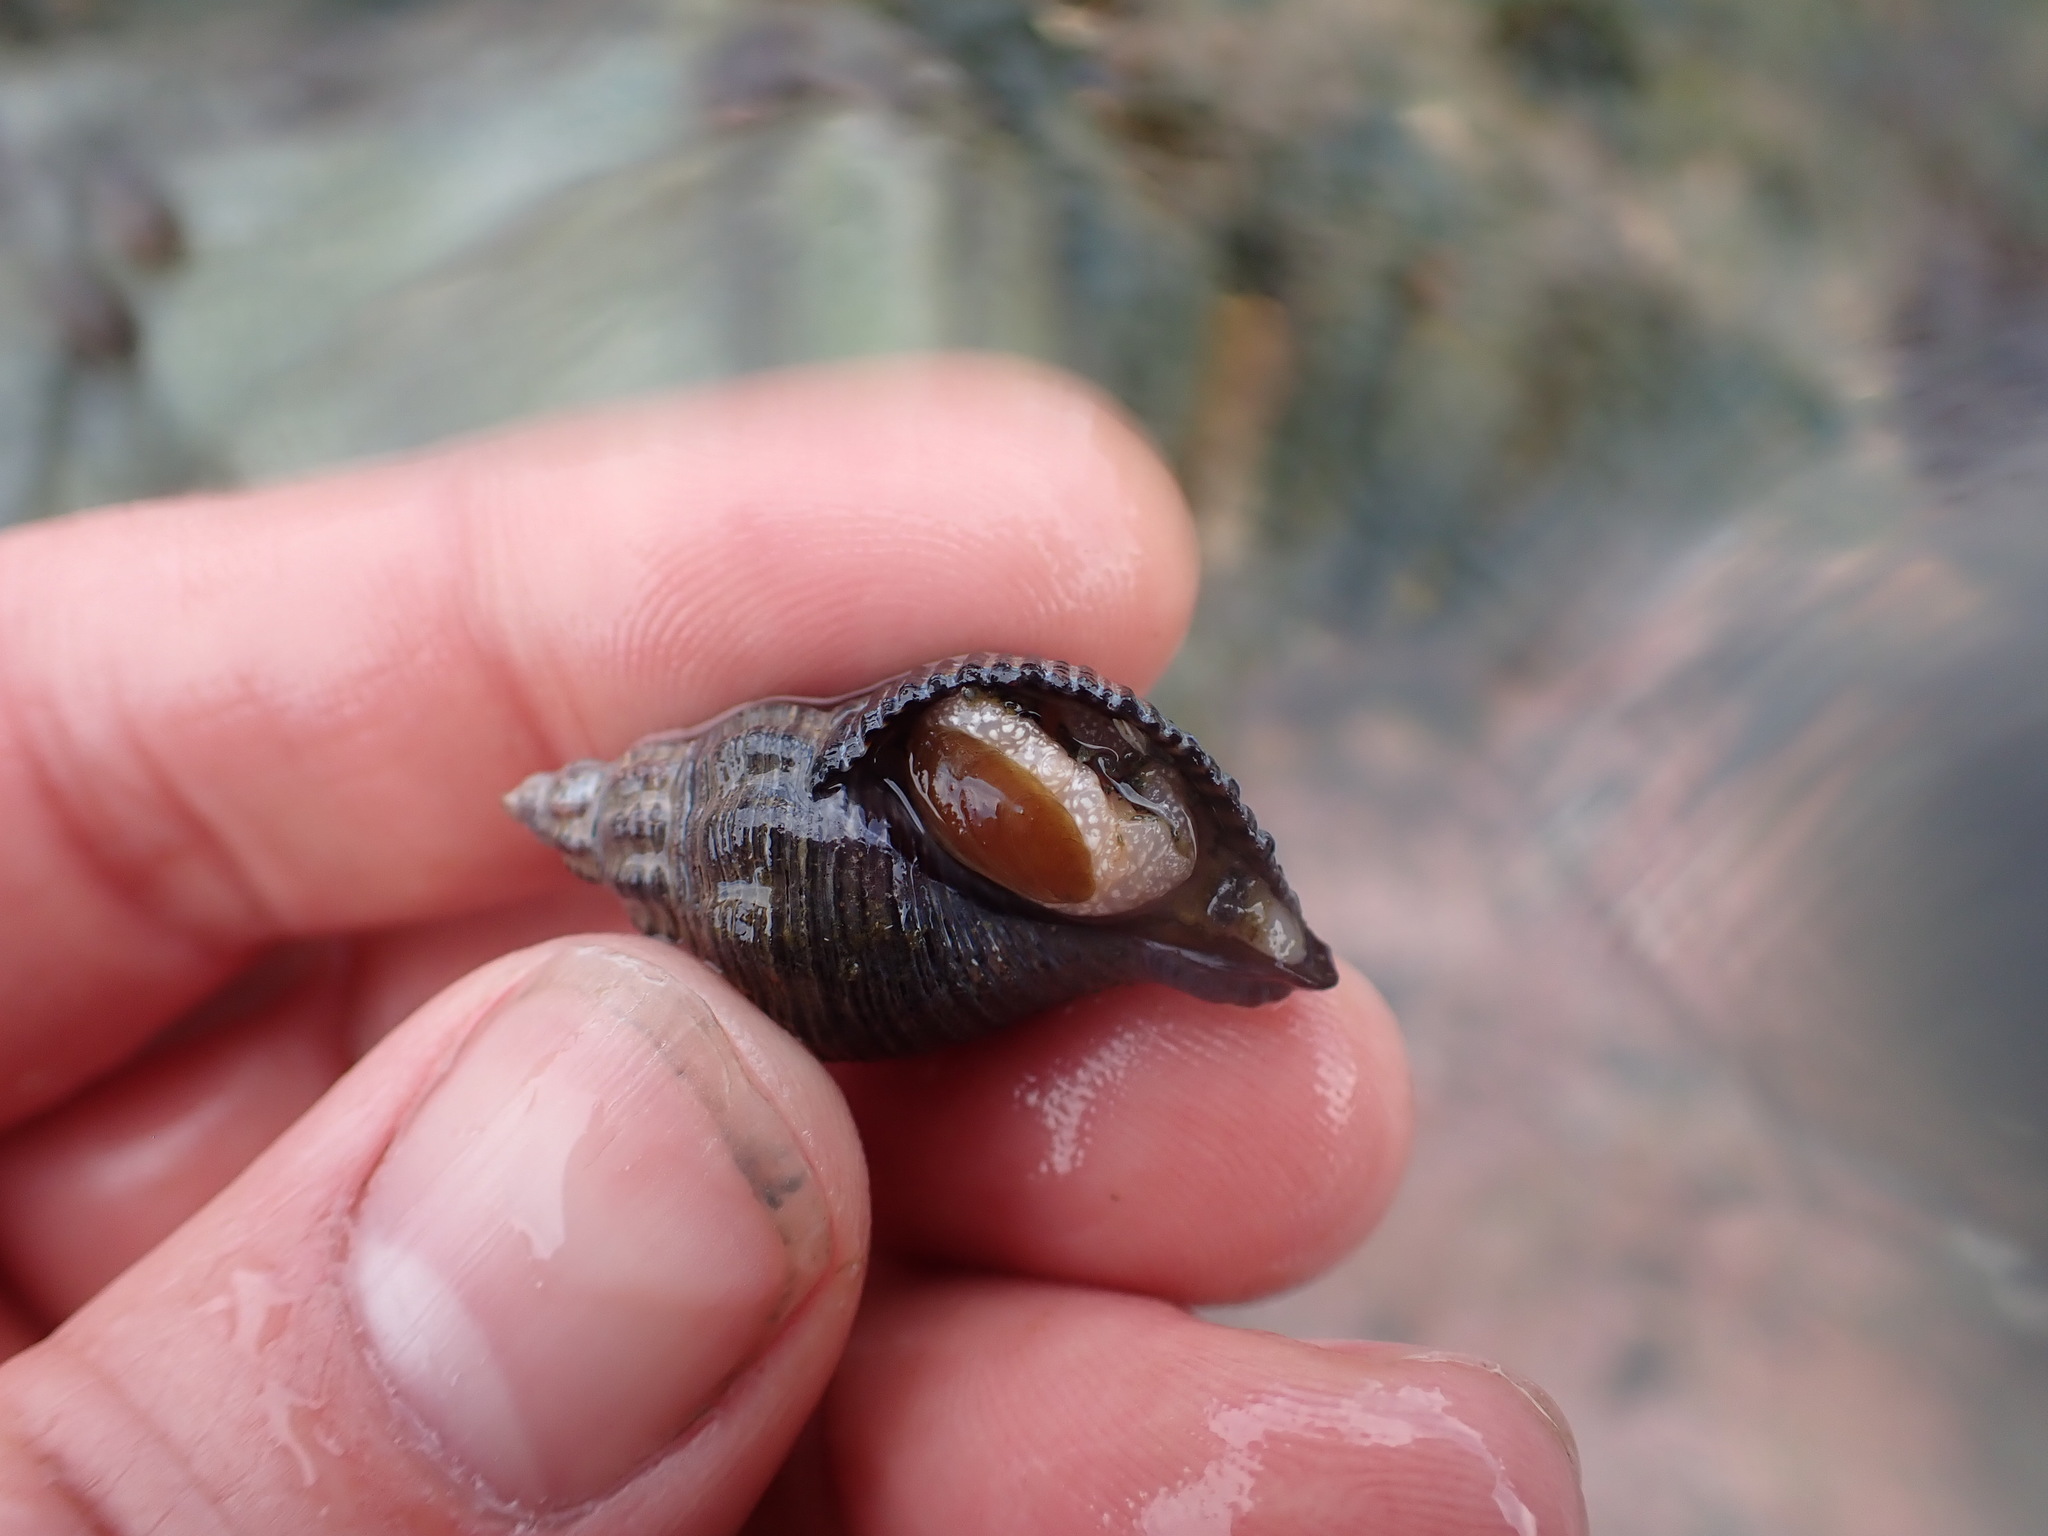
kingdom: Animalia
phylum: Mollusca
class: Gastropoda
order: Neogastropoda
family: Tudiclidae
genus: Lirabuccinum
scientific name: Lirabuccinum dirum
